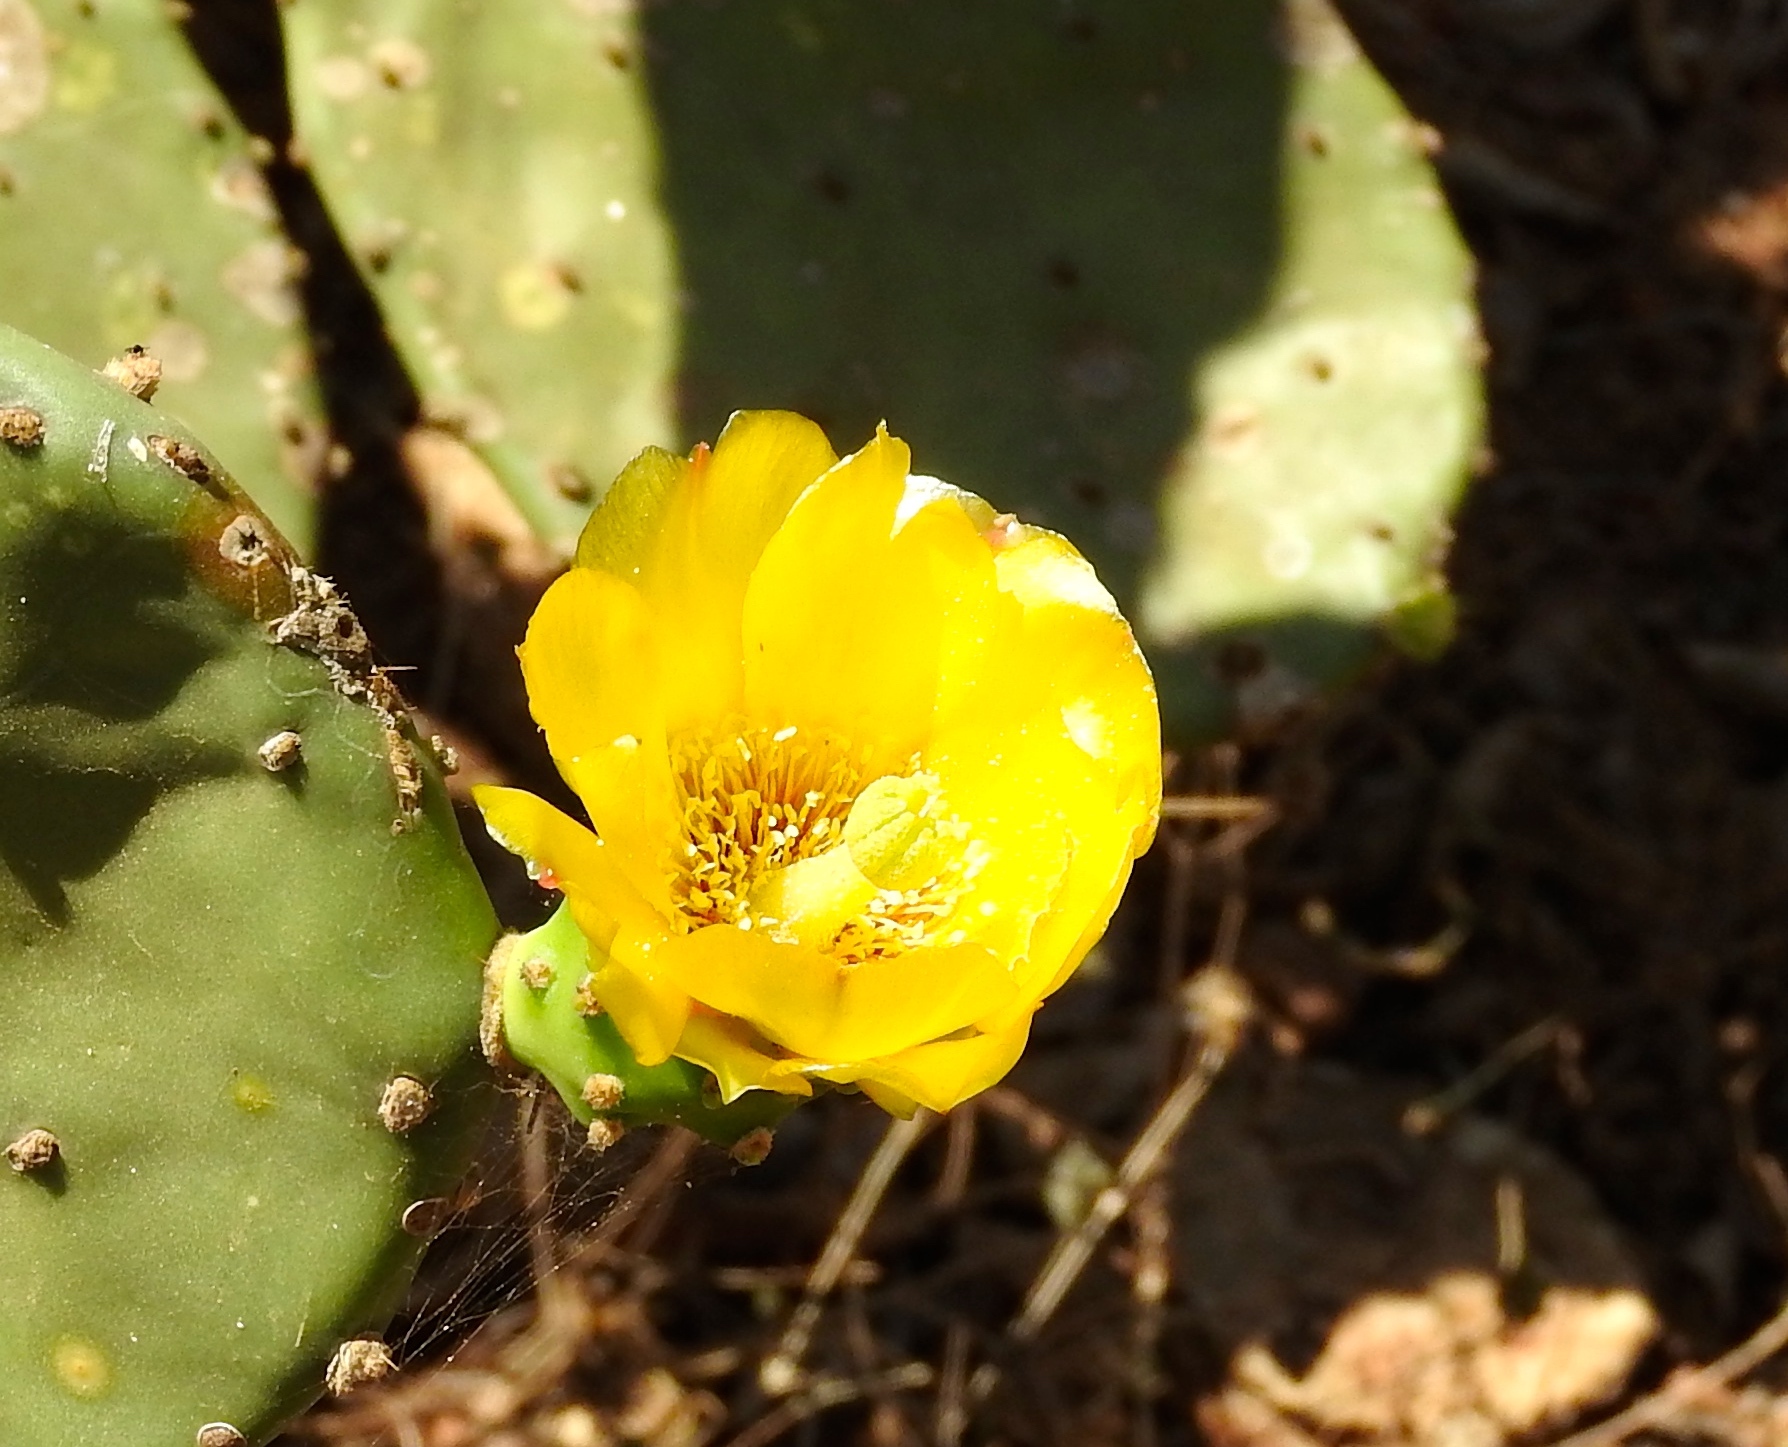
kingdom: Plantae
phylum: Tracheophyta
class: Magnoliopsida
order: Caryophyllales
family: Cactaceae
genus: Opuntia
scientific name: Opuntia
